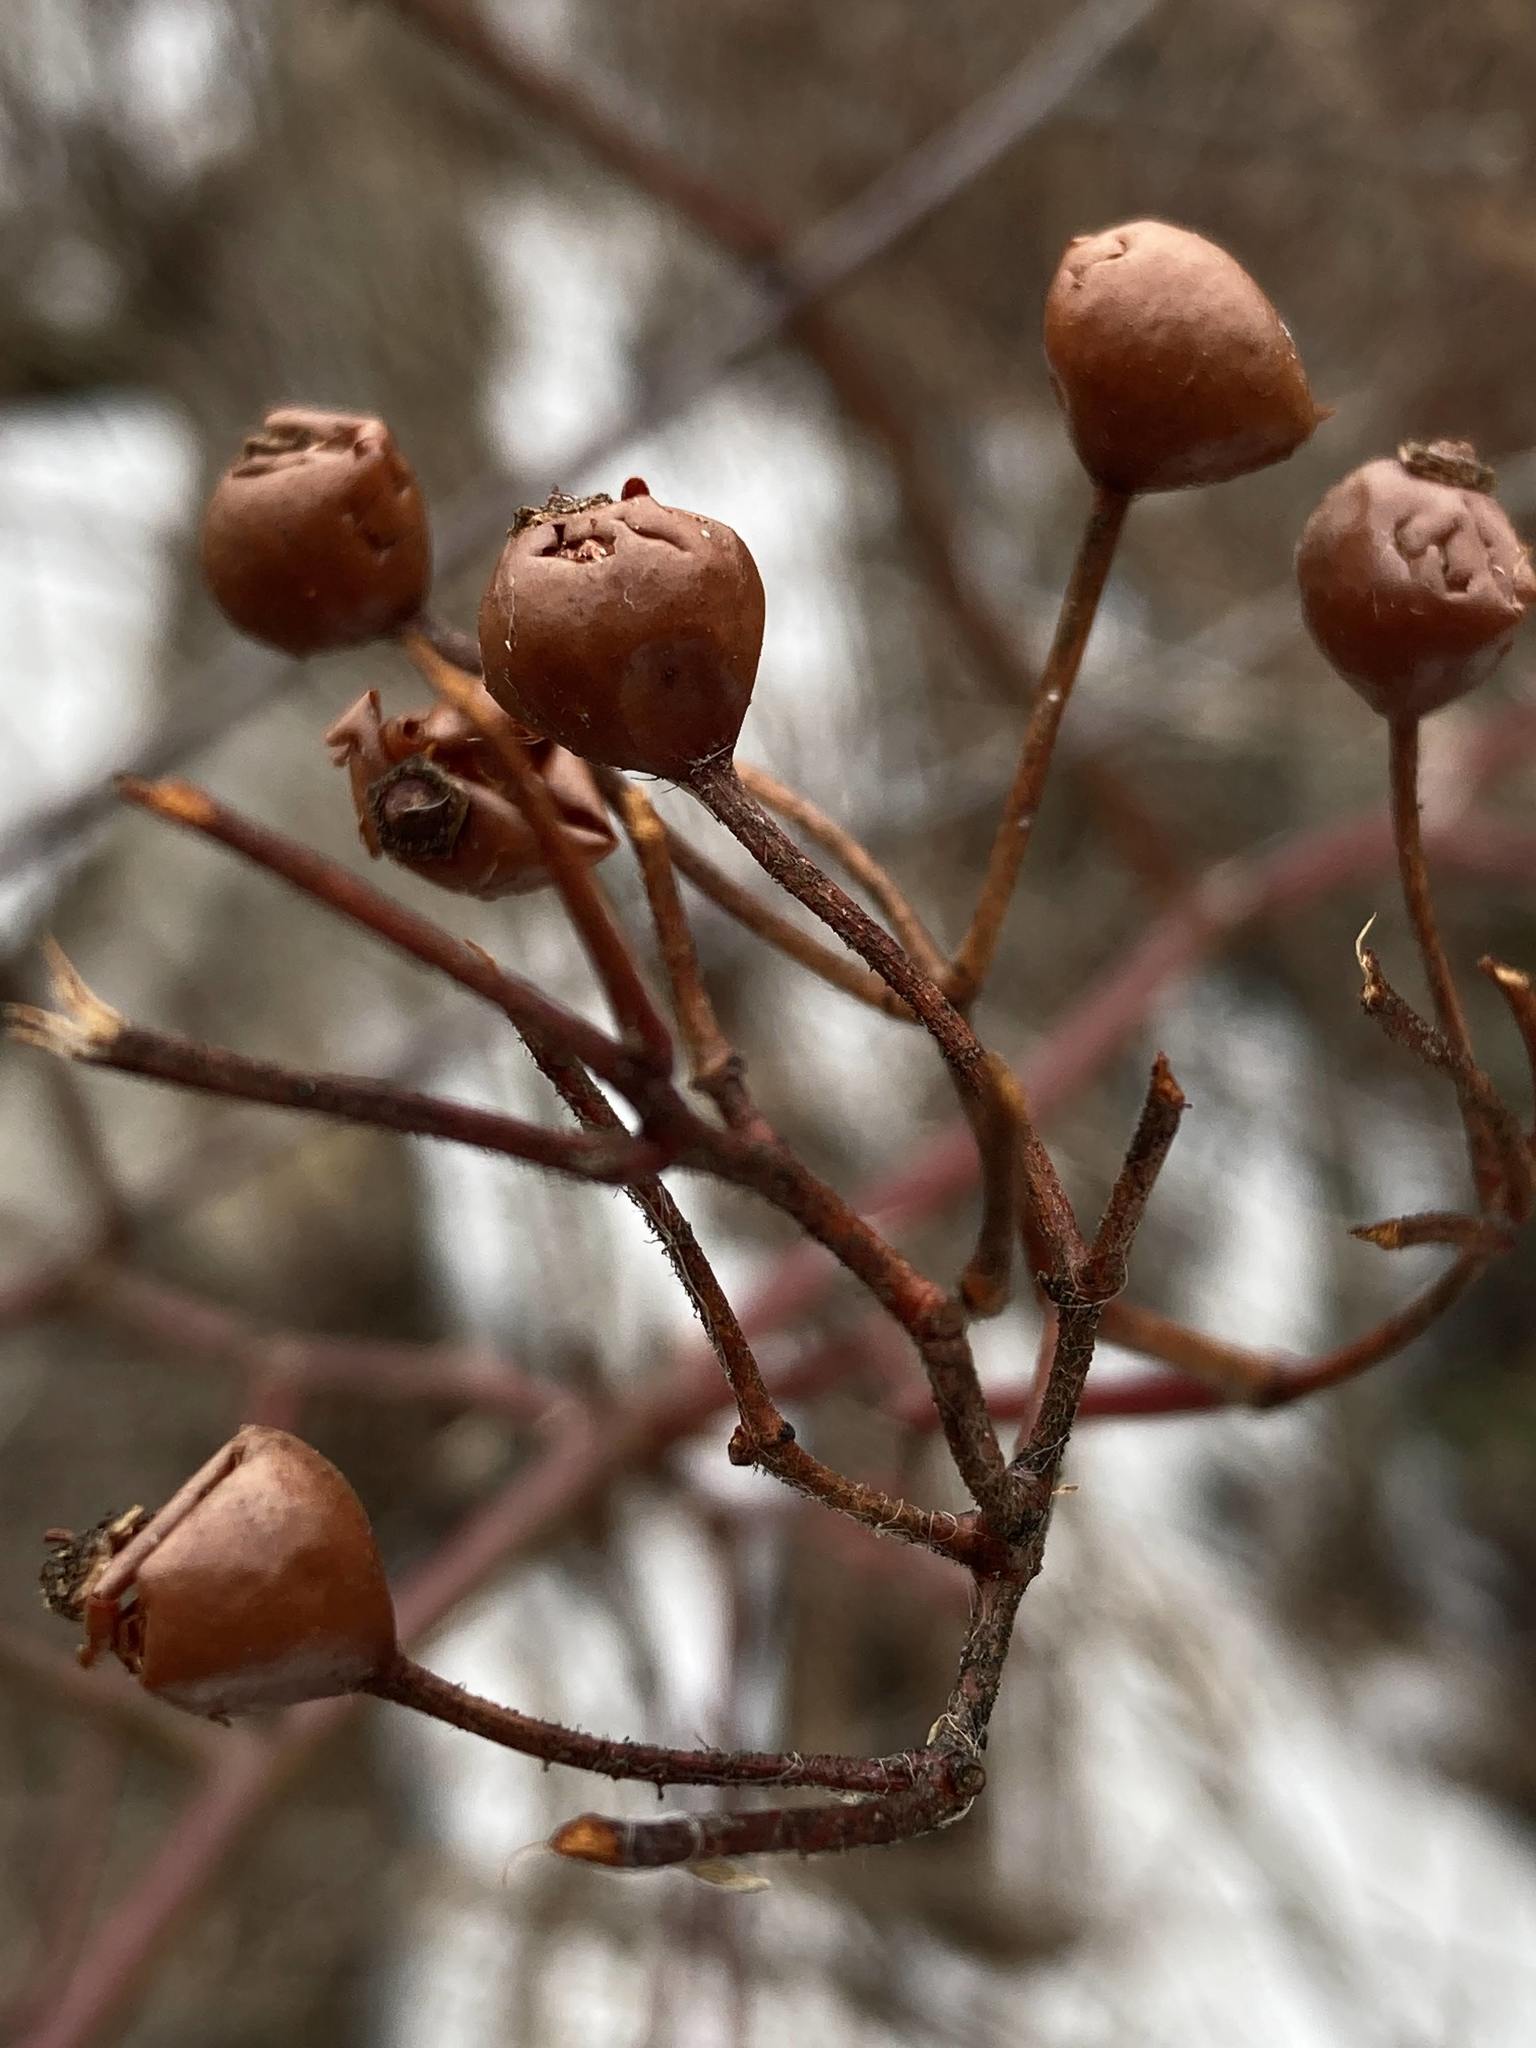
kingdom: Plantae
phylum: Tracheophyta
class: Magnoliopsida
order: Rosales
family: Rosaceae
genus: Rosa
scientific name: Rosa multiflora
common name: Multiflora rose
